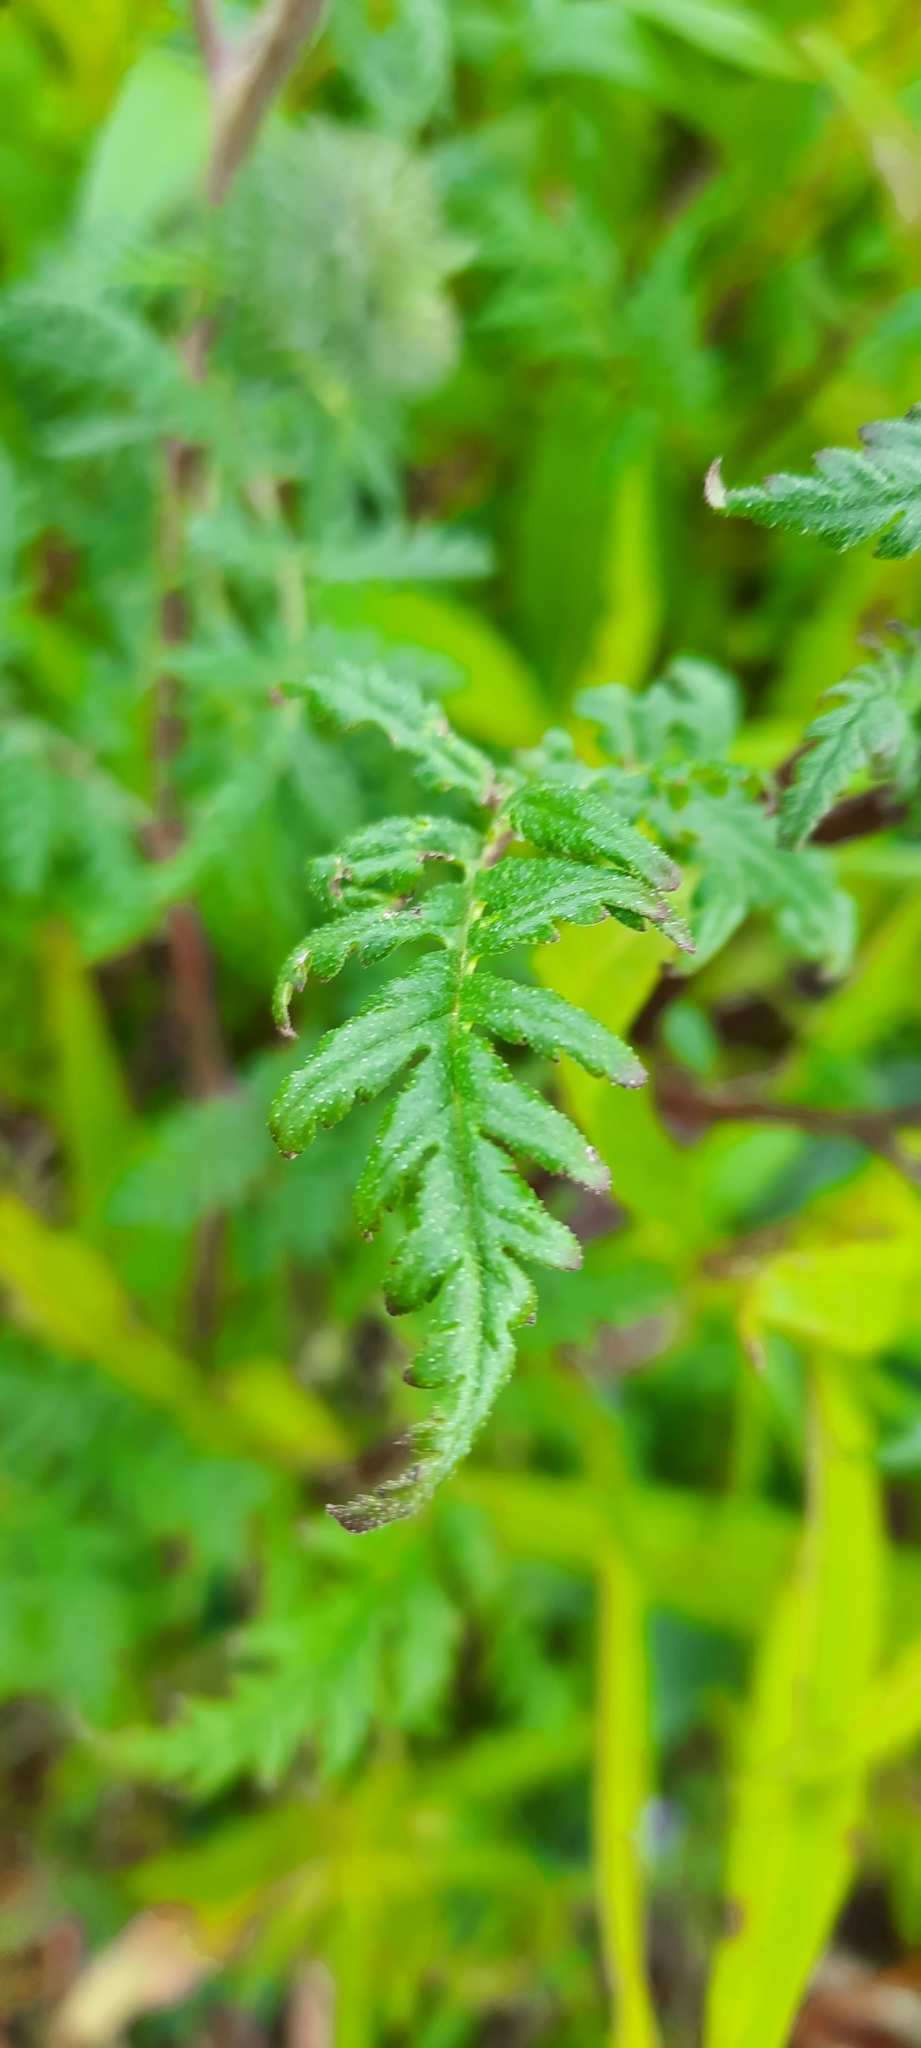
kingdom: Plantae
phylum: Tracheophyta
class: Magnoliopsida
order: Boraginales
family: Hydrophyllaceae
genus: Phacelia
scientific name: Phacelia tanacetifolia
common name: Phacelia
